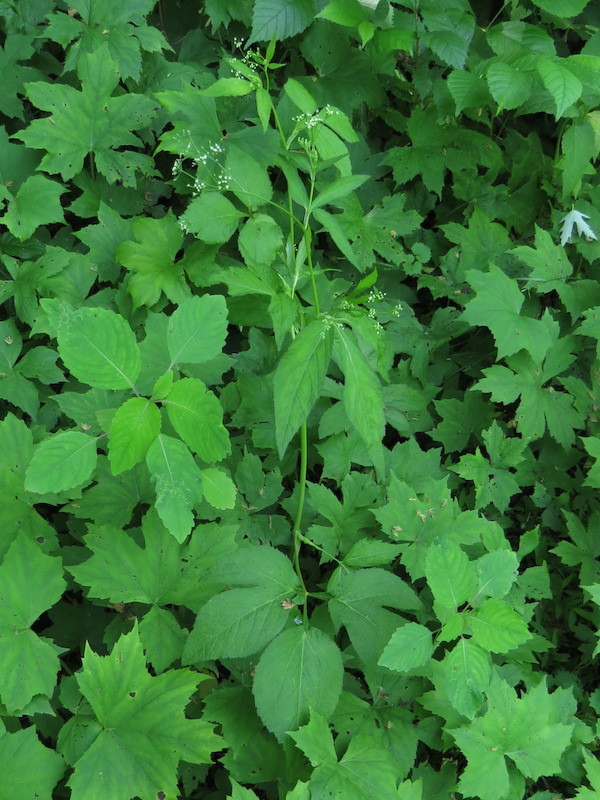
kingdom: Plantae
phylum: Tracheophyta
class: Magnoliopsida
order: Apiales
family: Apiaceae
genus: Cryptotaenia
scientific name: Cryptotaenia canadensis
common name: Honewort
